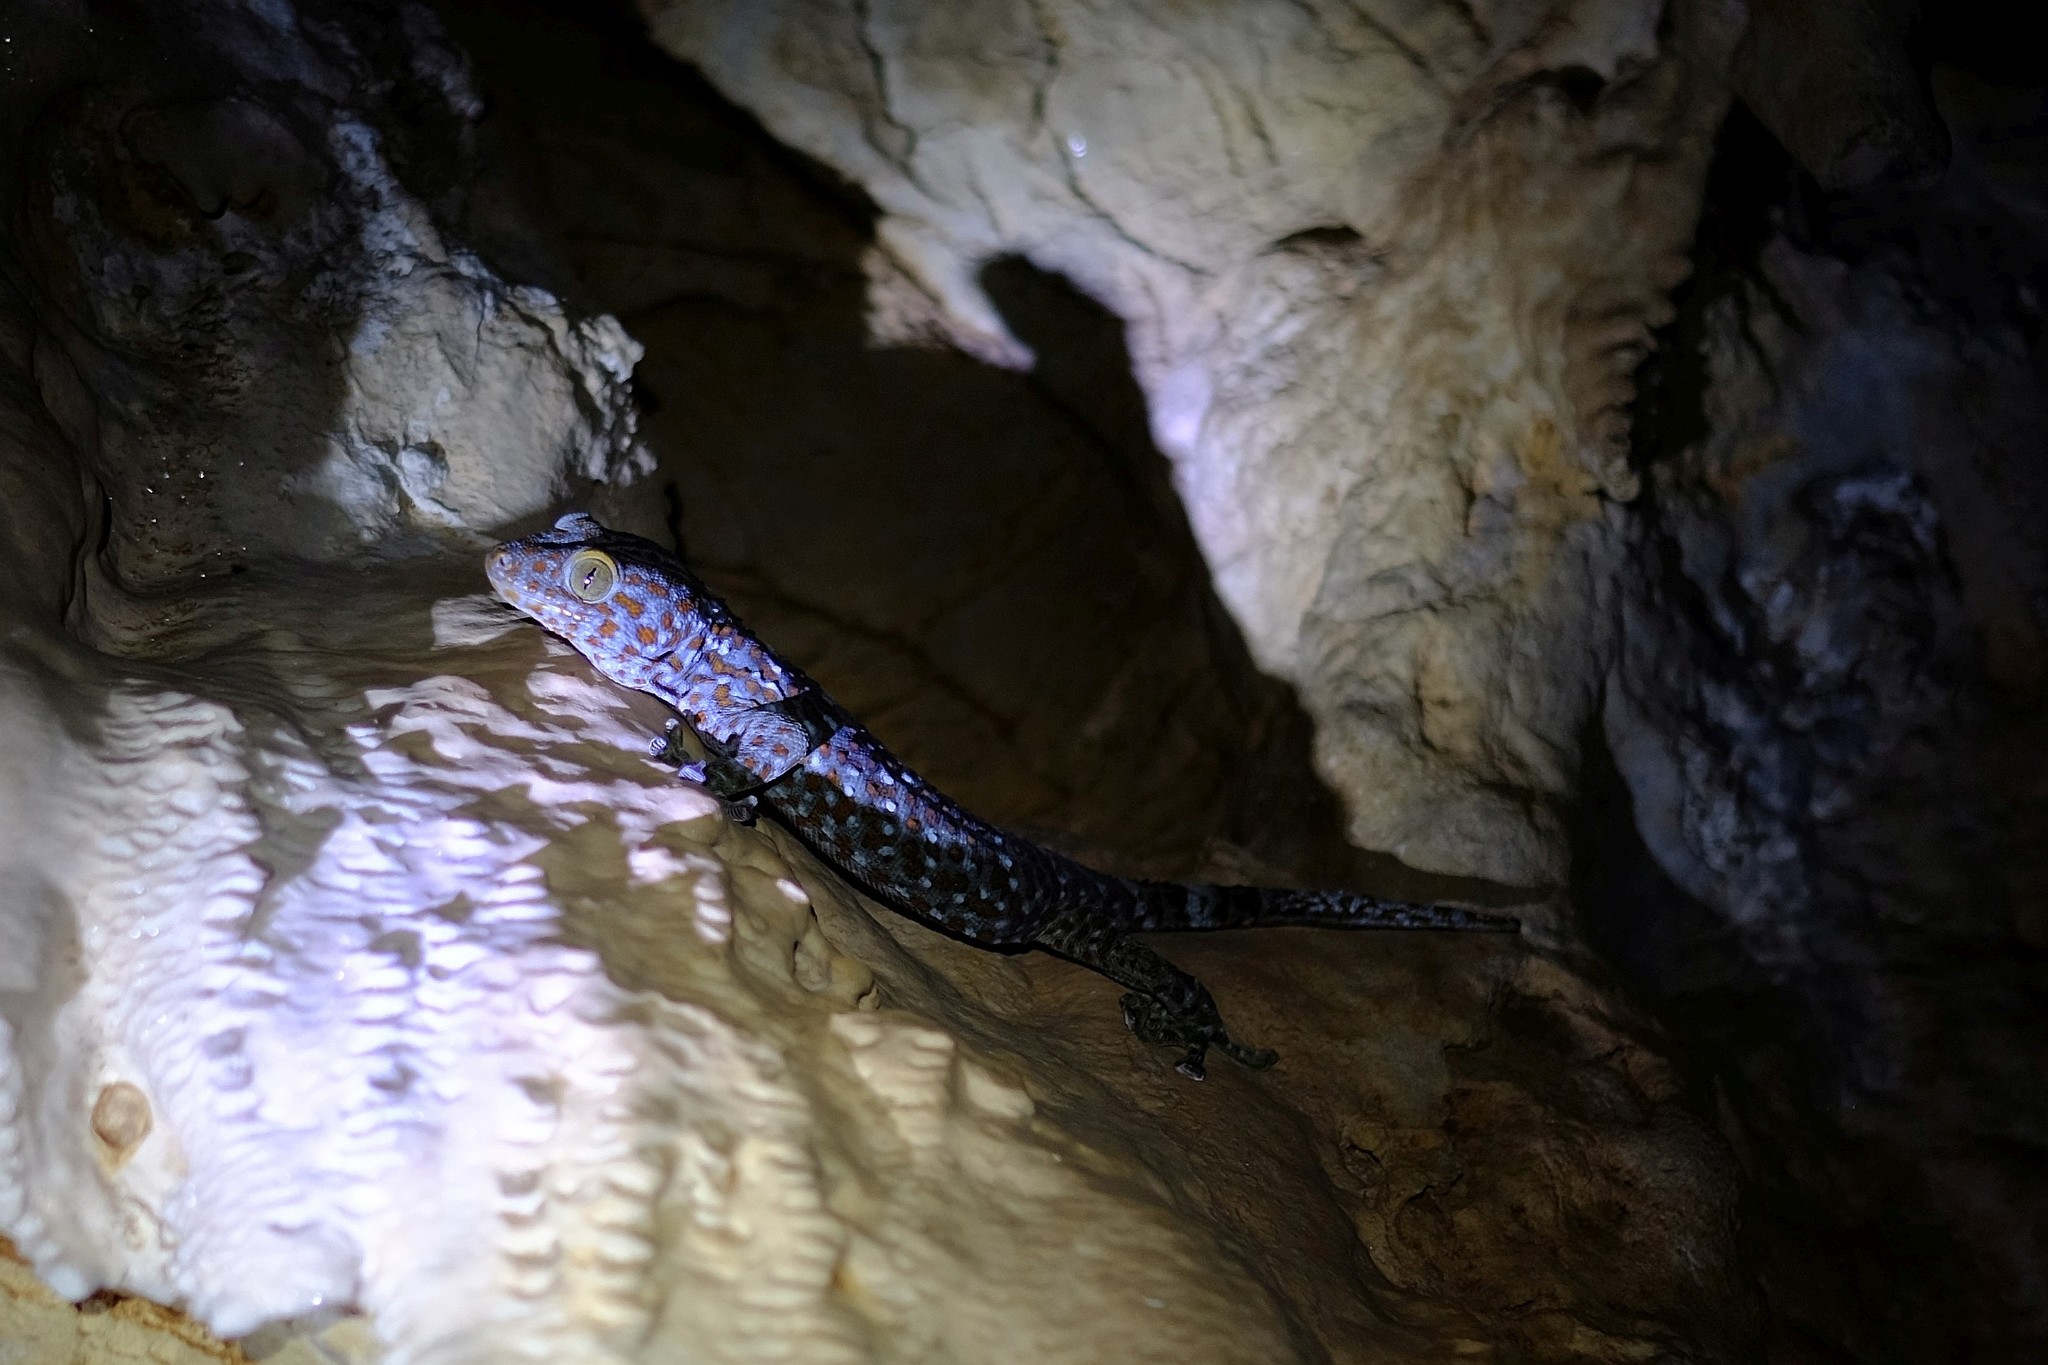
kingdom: Animalia
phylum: Chordata
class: Squamata
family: Gekkonidae
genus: Gekko
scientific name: Gekko gecko
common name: Tokay gecko
